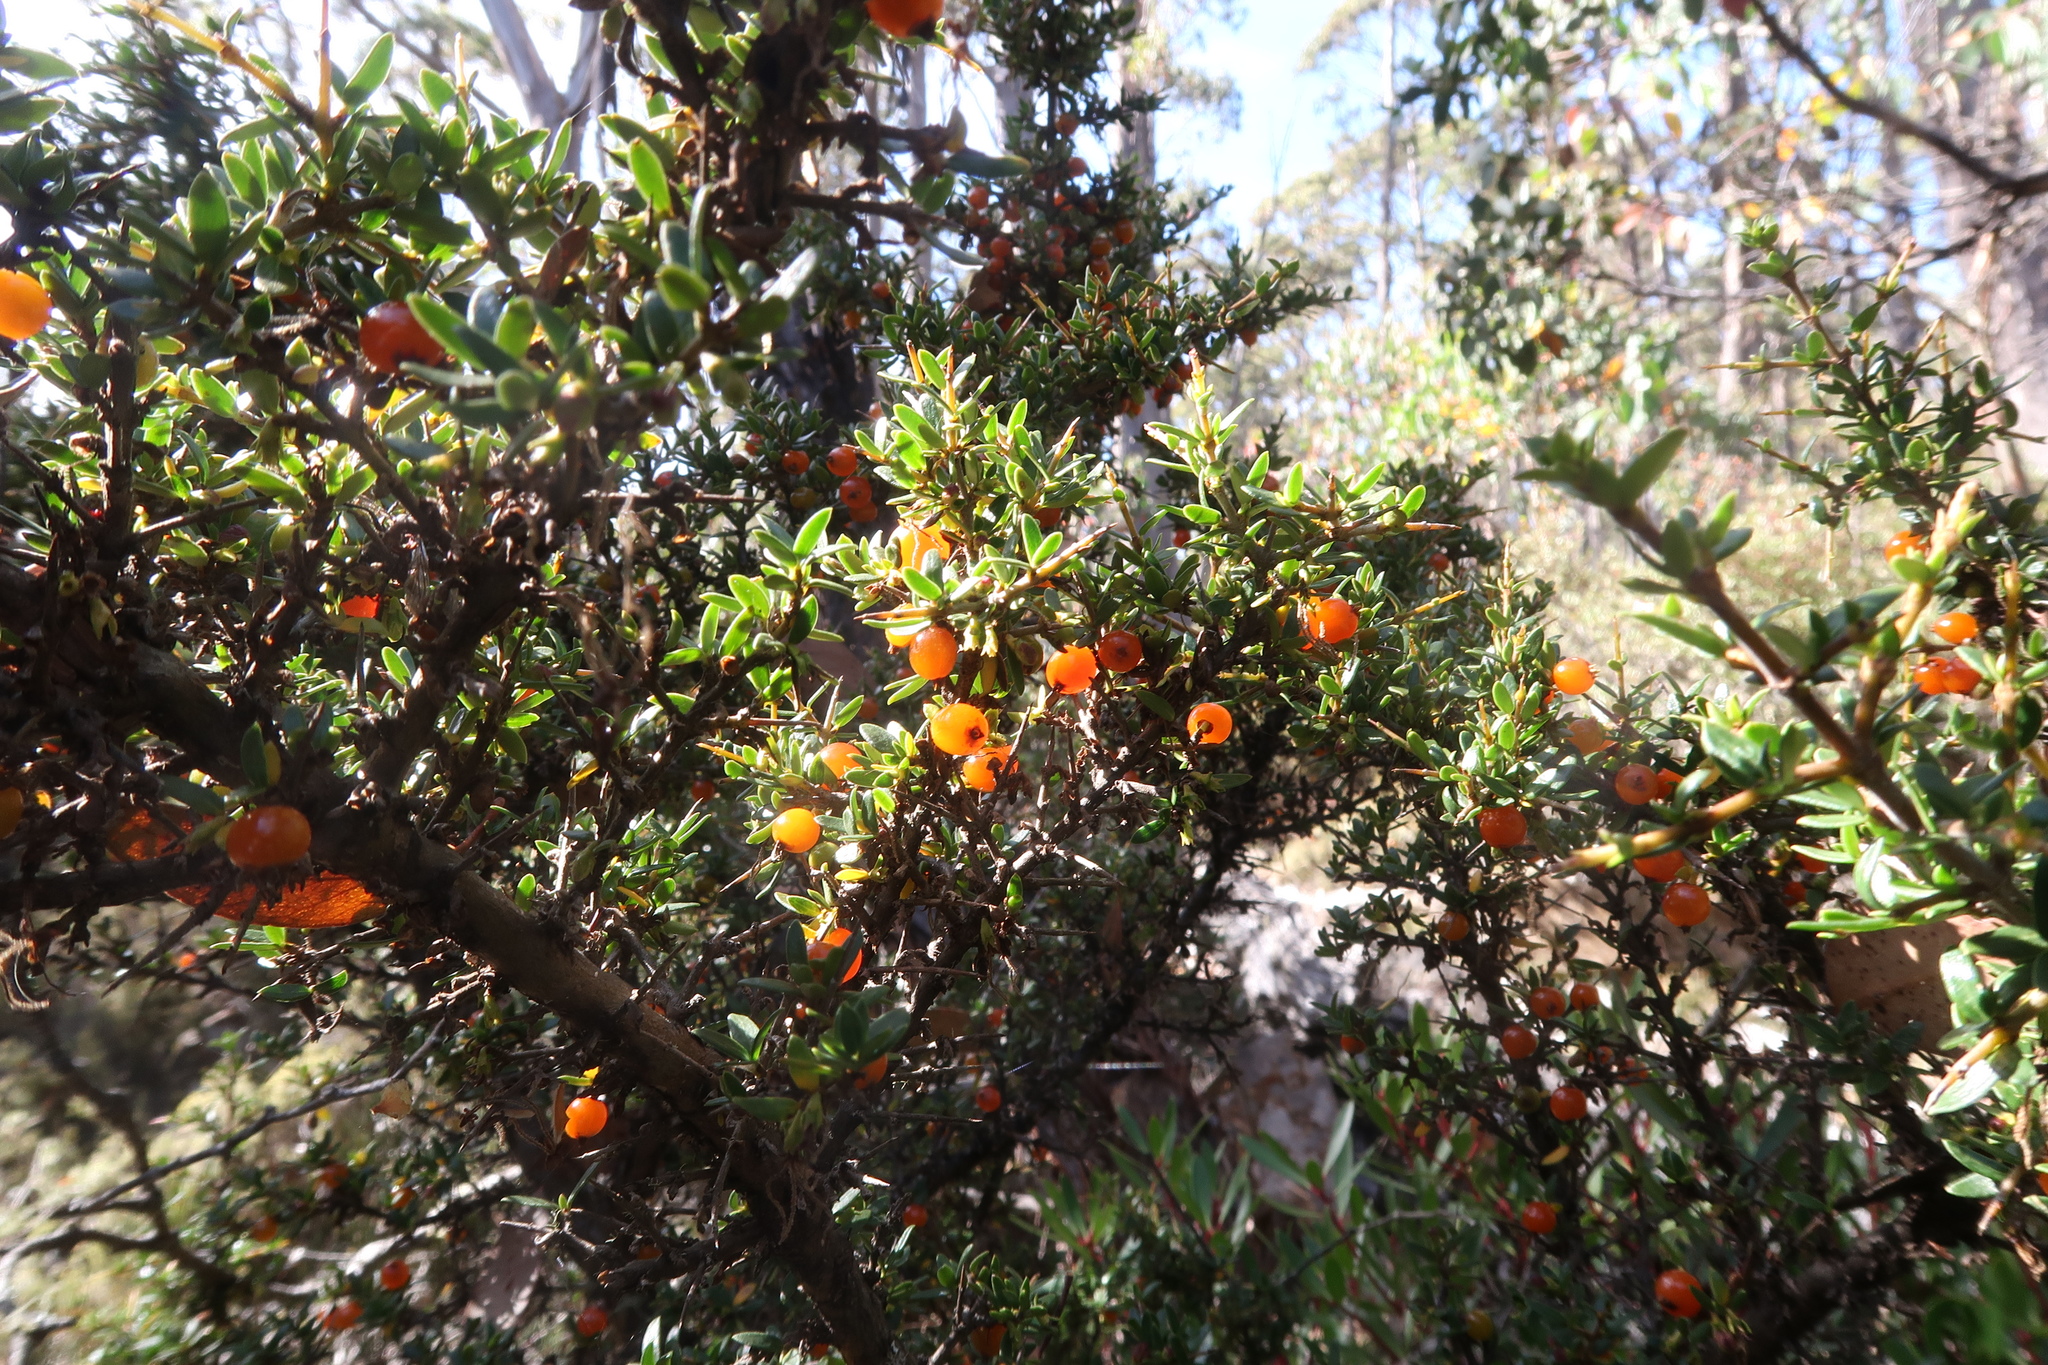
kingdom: Plantae
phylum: Tracheophyta
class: Magnoliopsida
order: Gentianales
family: Rubiaceae
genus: Coprosma
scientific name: Coprosma nitida
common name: Shining coprosma
